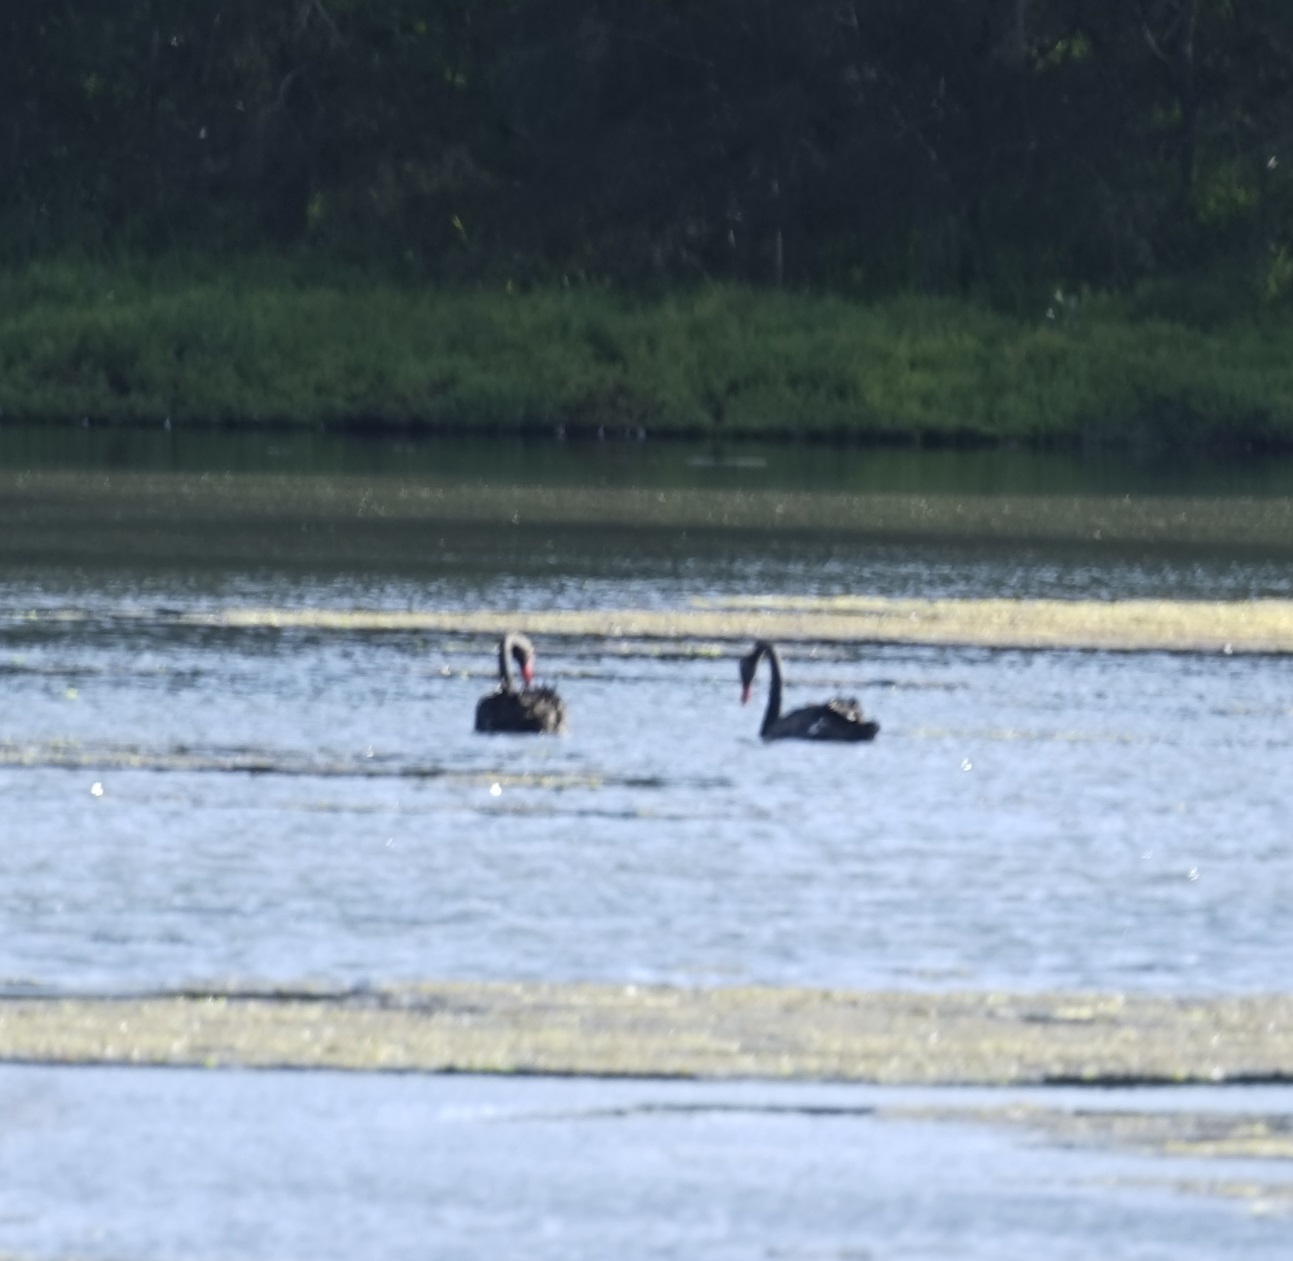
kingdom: Animalia
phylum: Chordata
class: Aves
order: Anseriformes
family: Anatidae
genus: Cygnus
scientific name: Cygnus atratus
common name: Black swan
